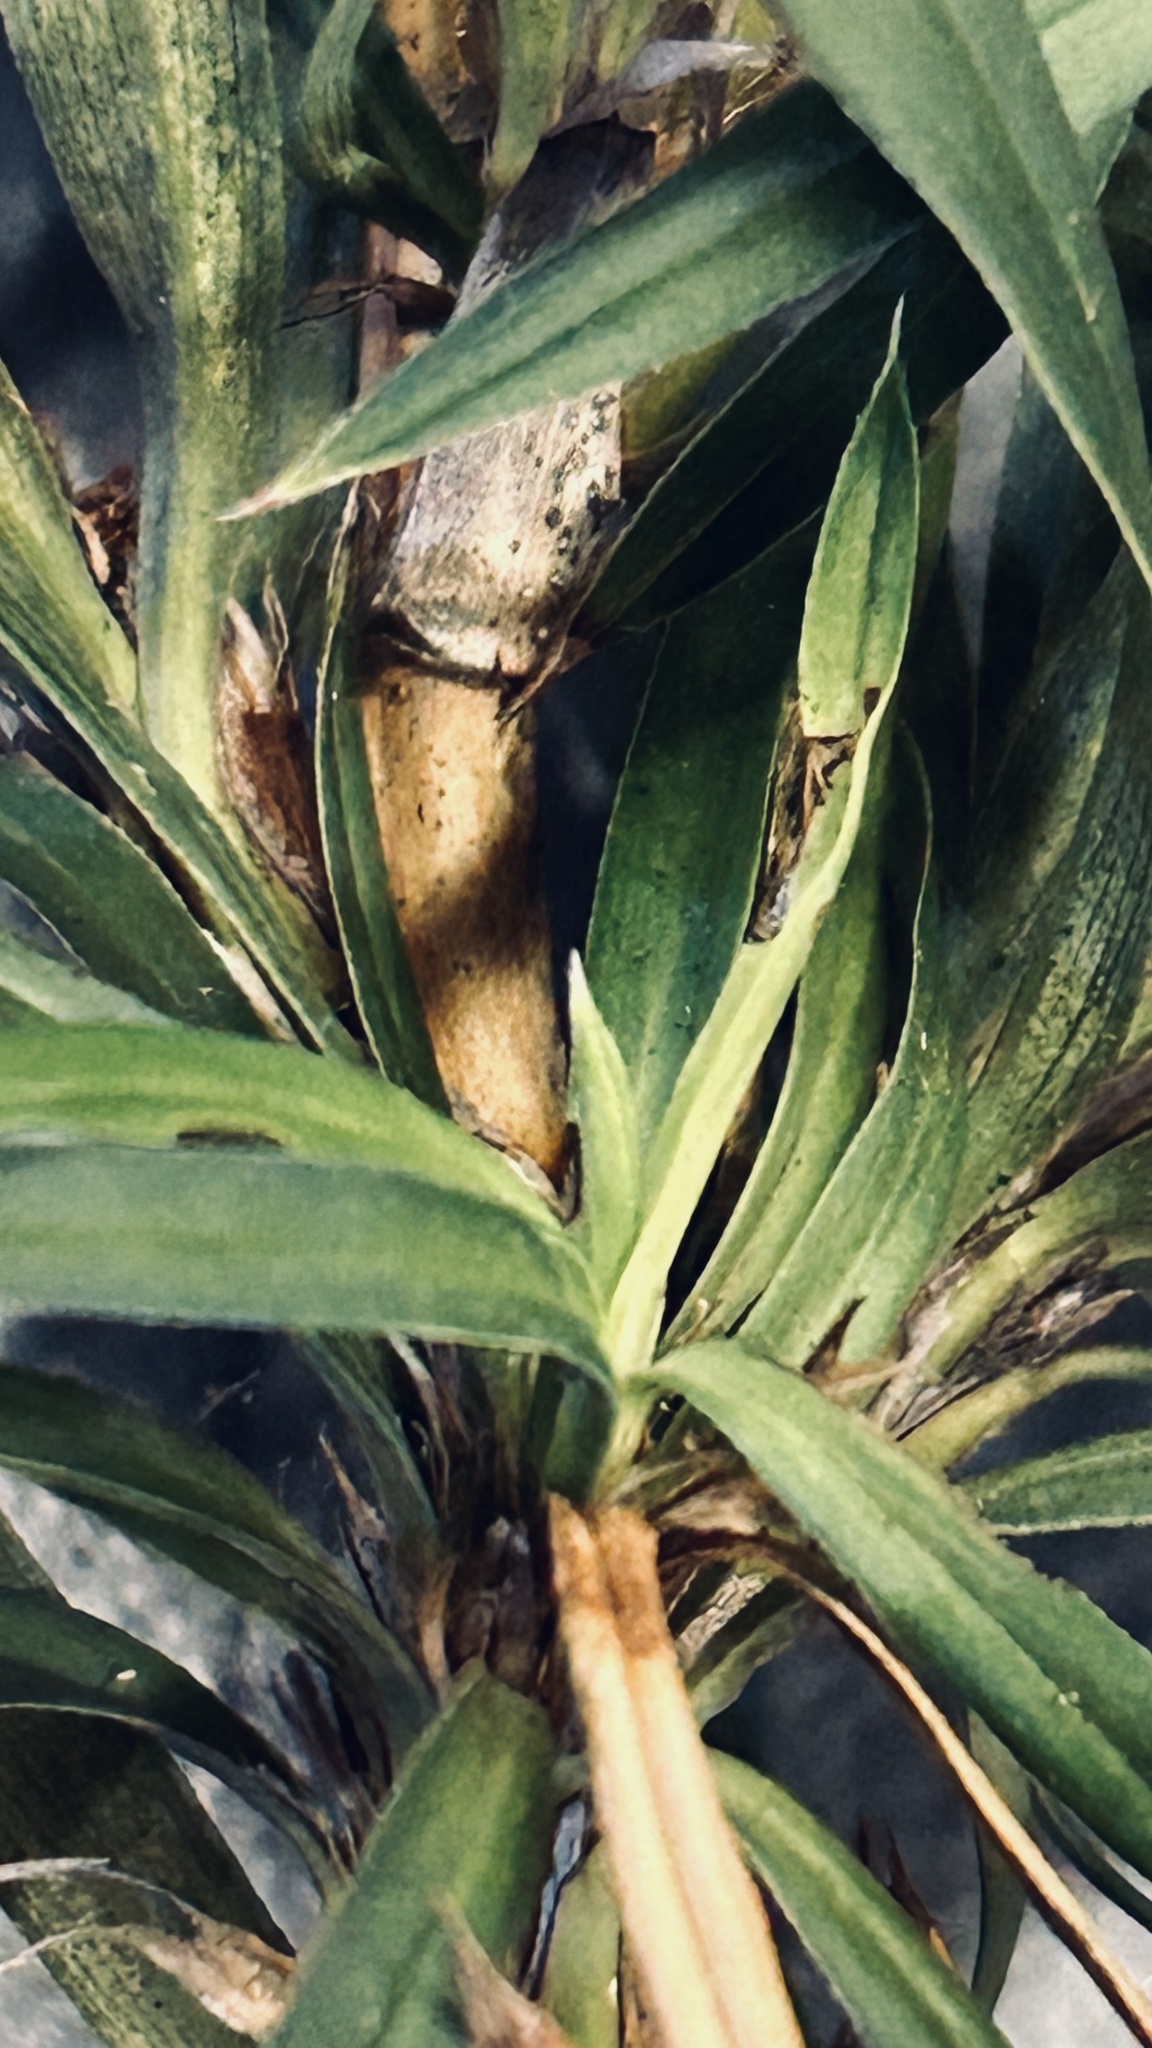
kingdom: Plantae
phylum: Tracheophyta
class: Magnoliopsida
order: Rosales
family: Rosaceae
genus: Cliffortia
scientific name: Cliffortia longifolia
